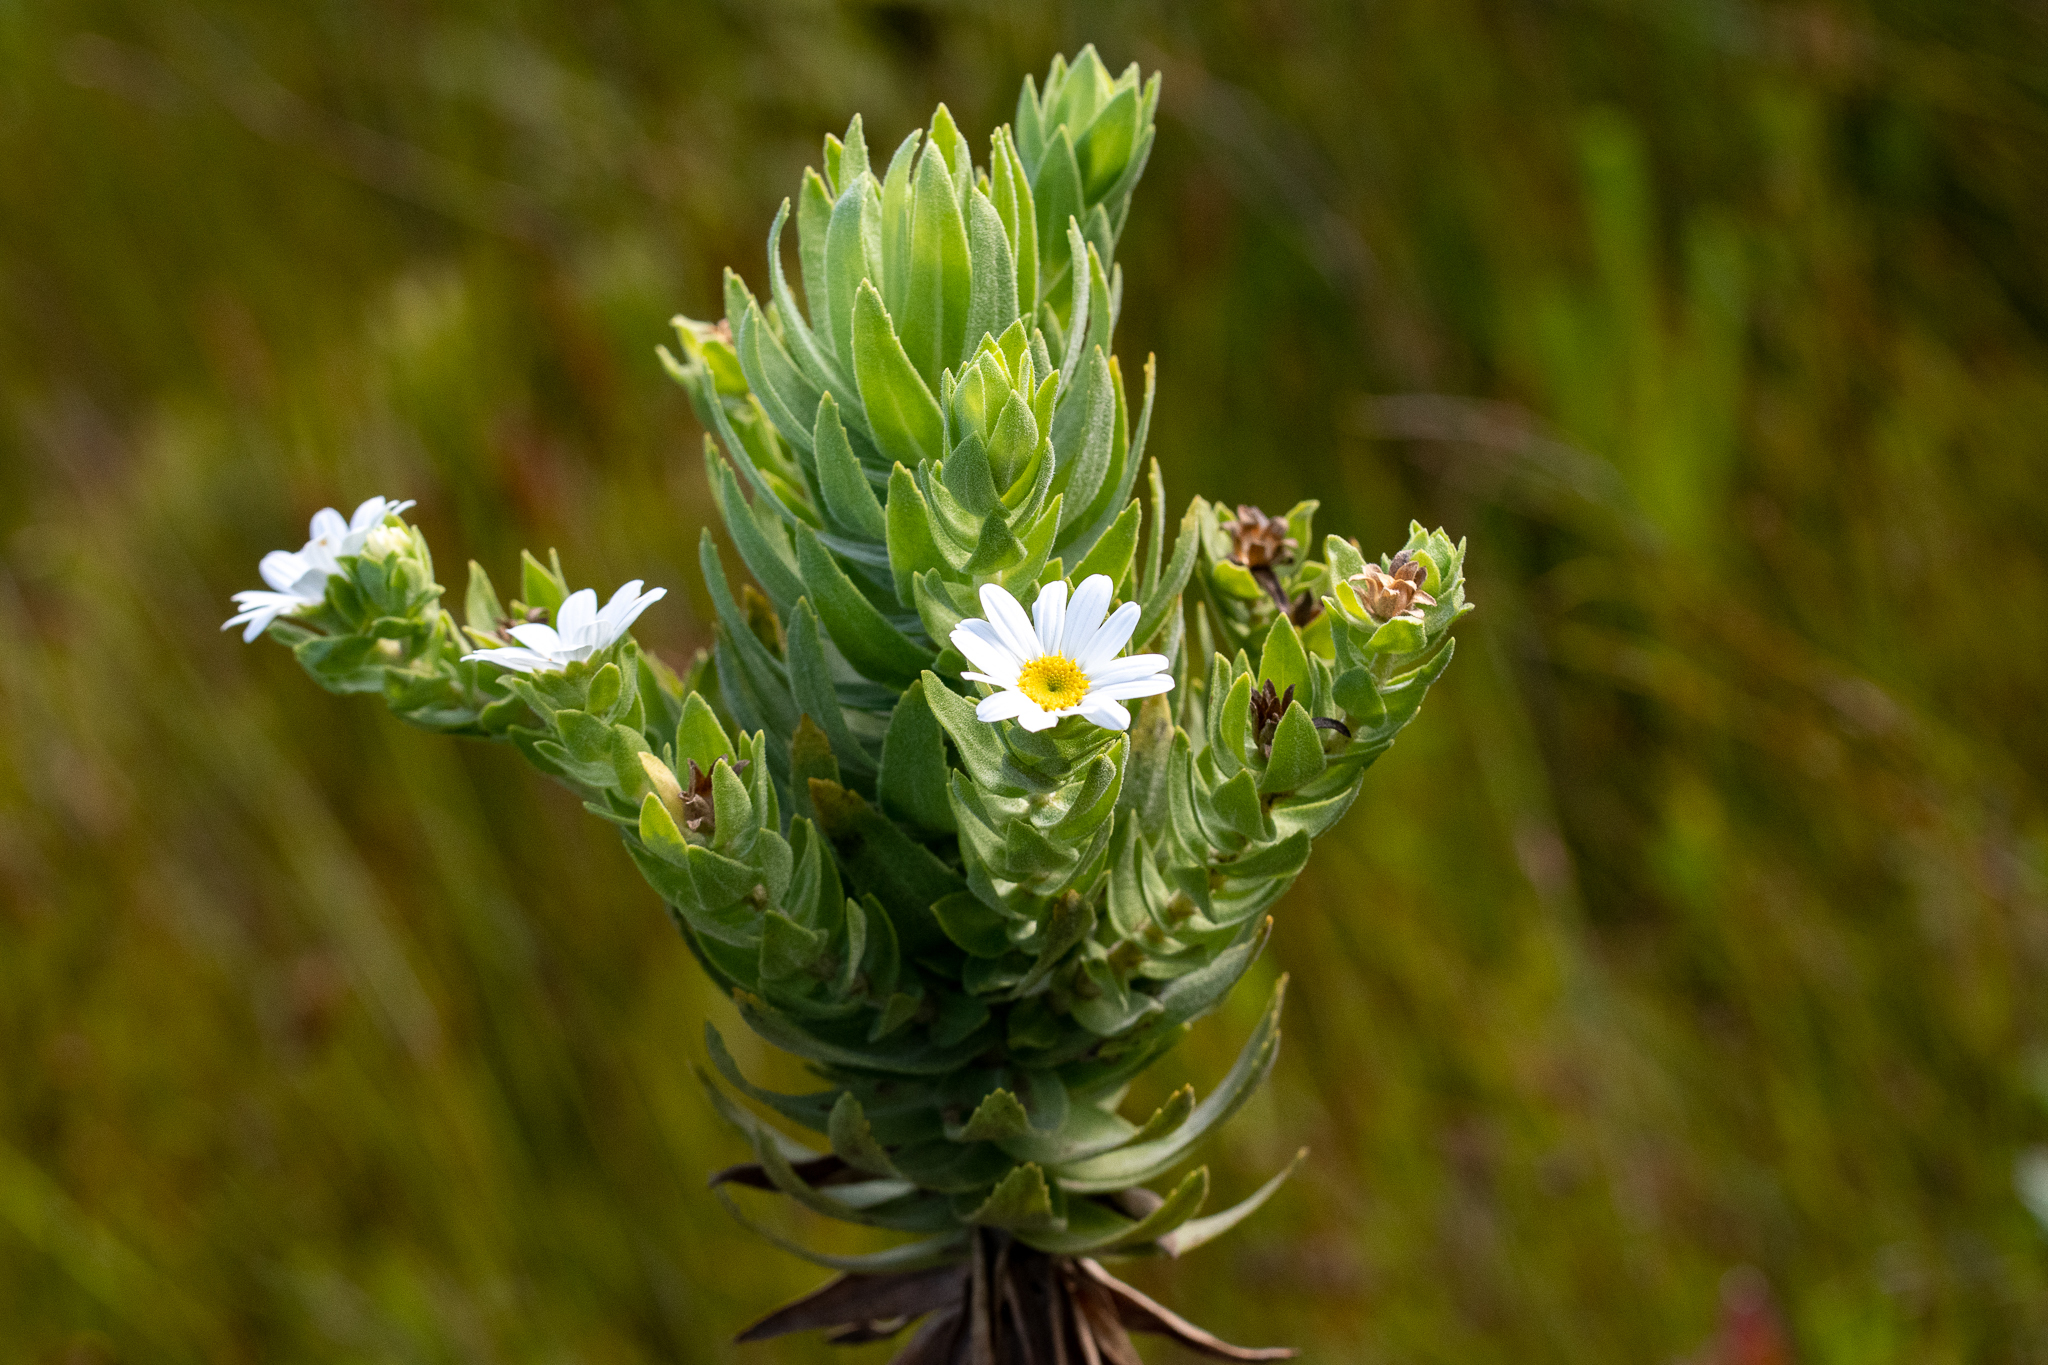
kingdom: Plantae
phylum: Tracheophyta
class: Magnoliopsida
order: Asterales
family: Asteraceae
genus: Osmitopsis
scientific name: Osmitopsis asteriscoides
